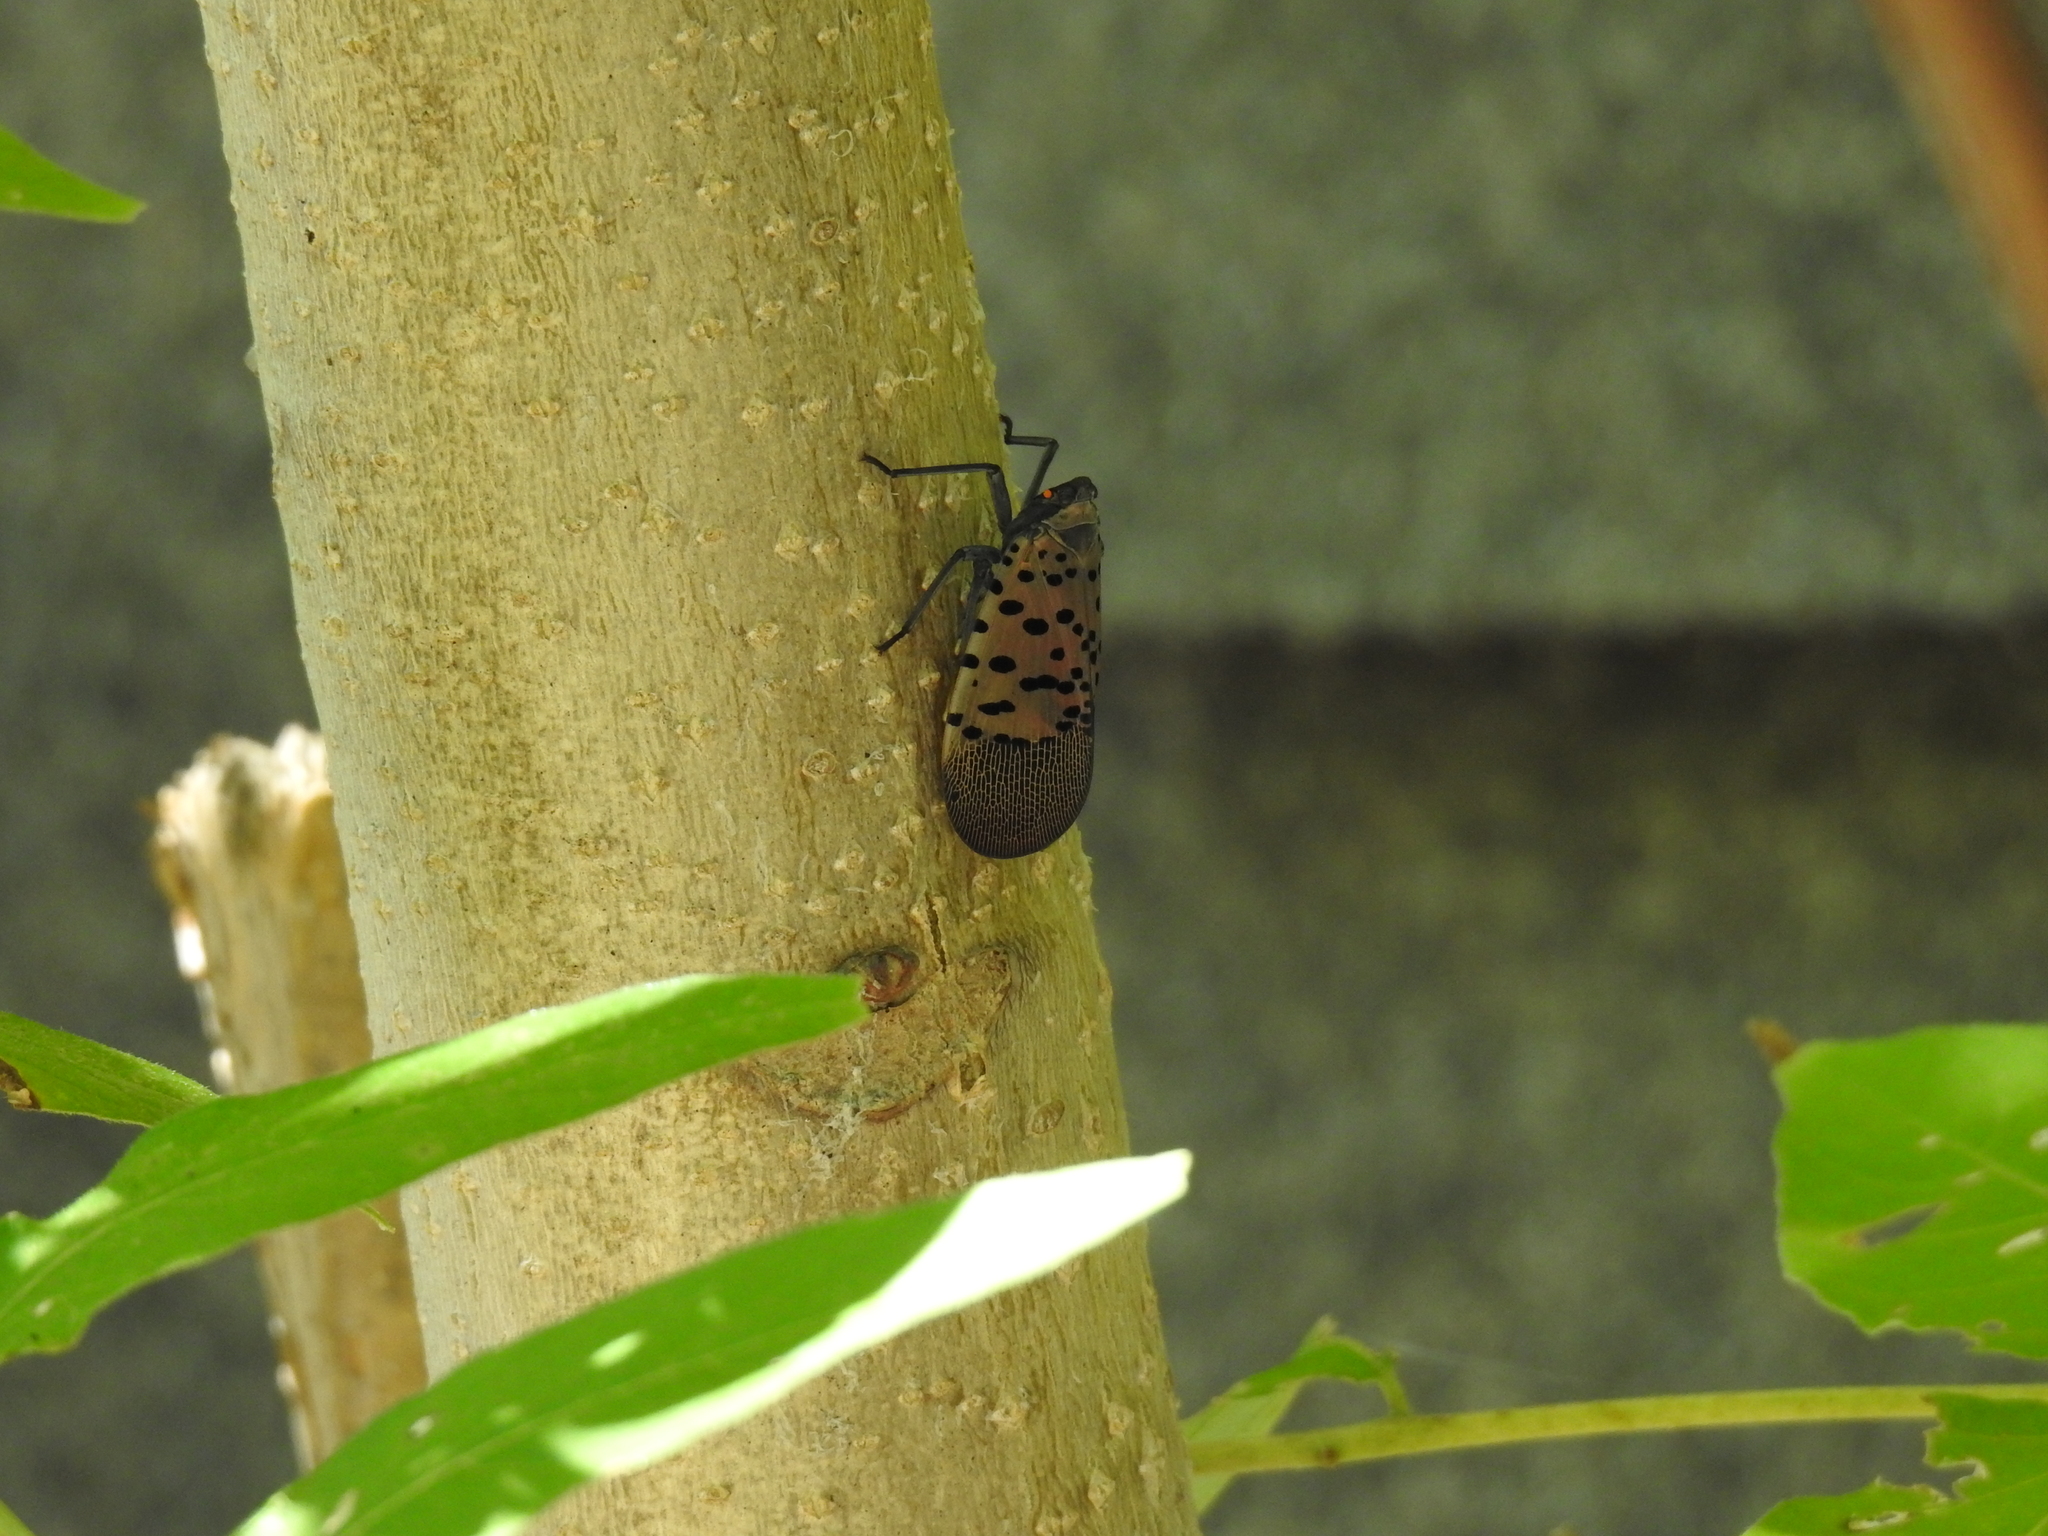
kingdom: Animalia
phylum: Arthropoda
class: Insecta
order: Hemiptera
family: Fulgoridae
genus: Lycorma
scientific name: Lycorma delicatula
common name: Spotted lanternfly
